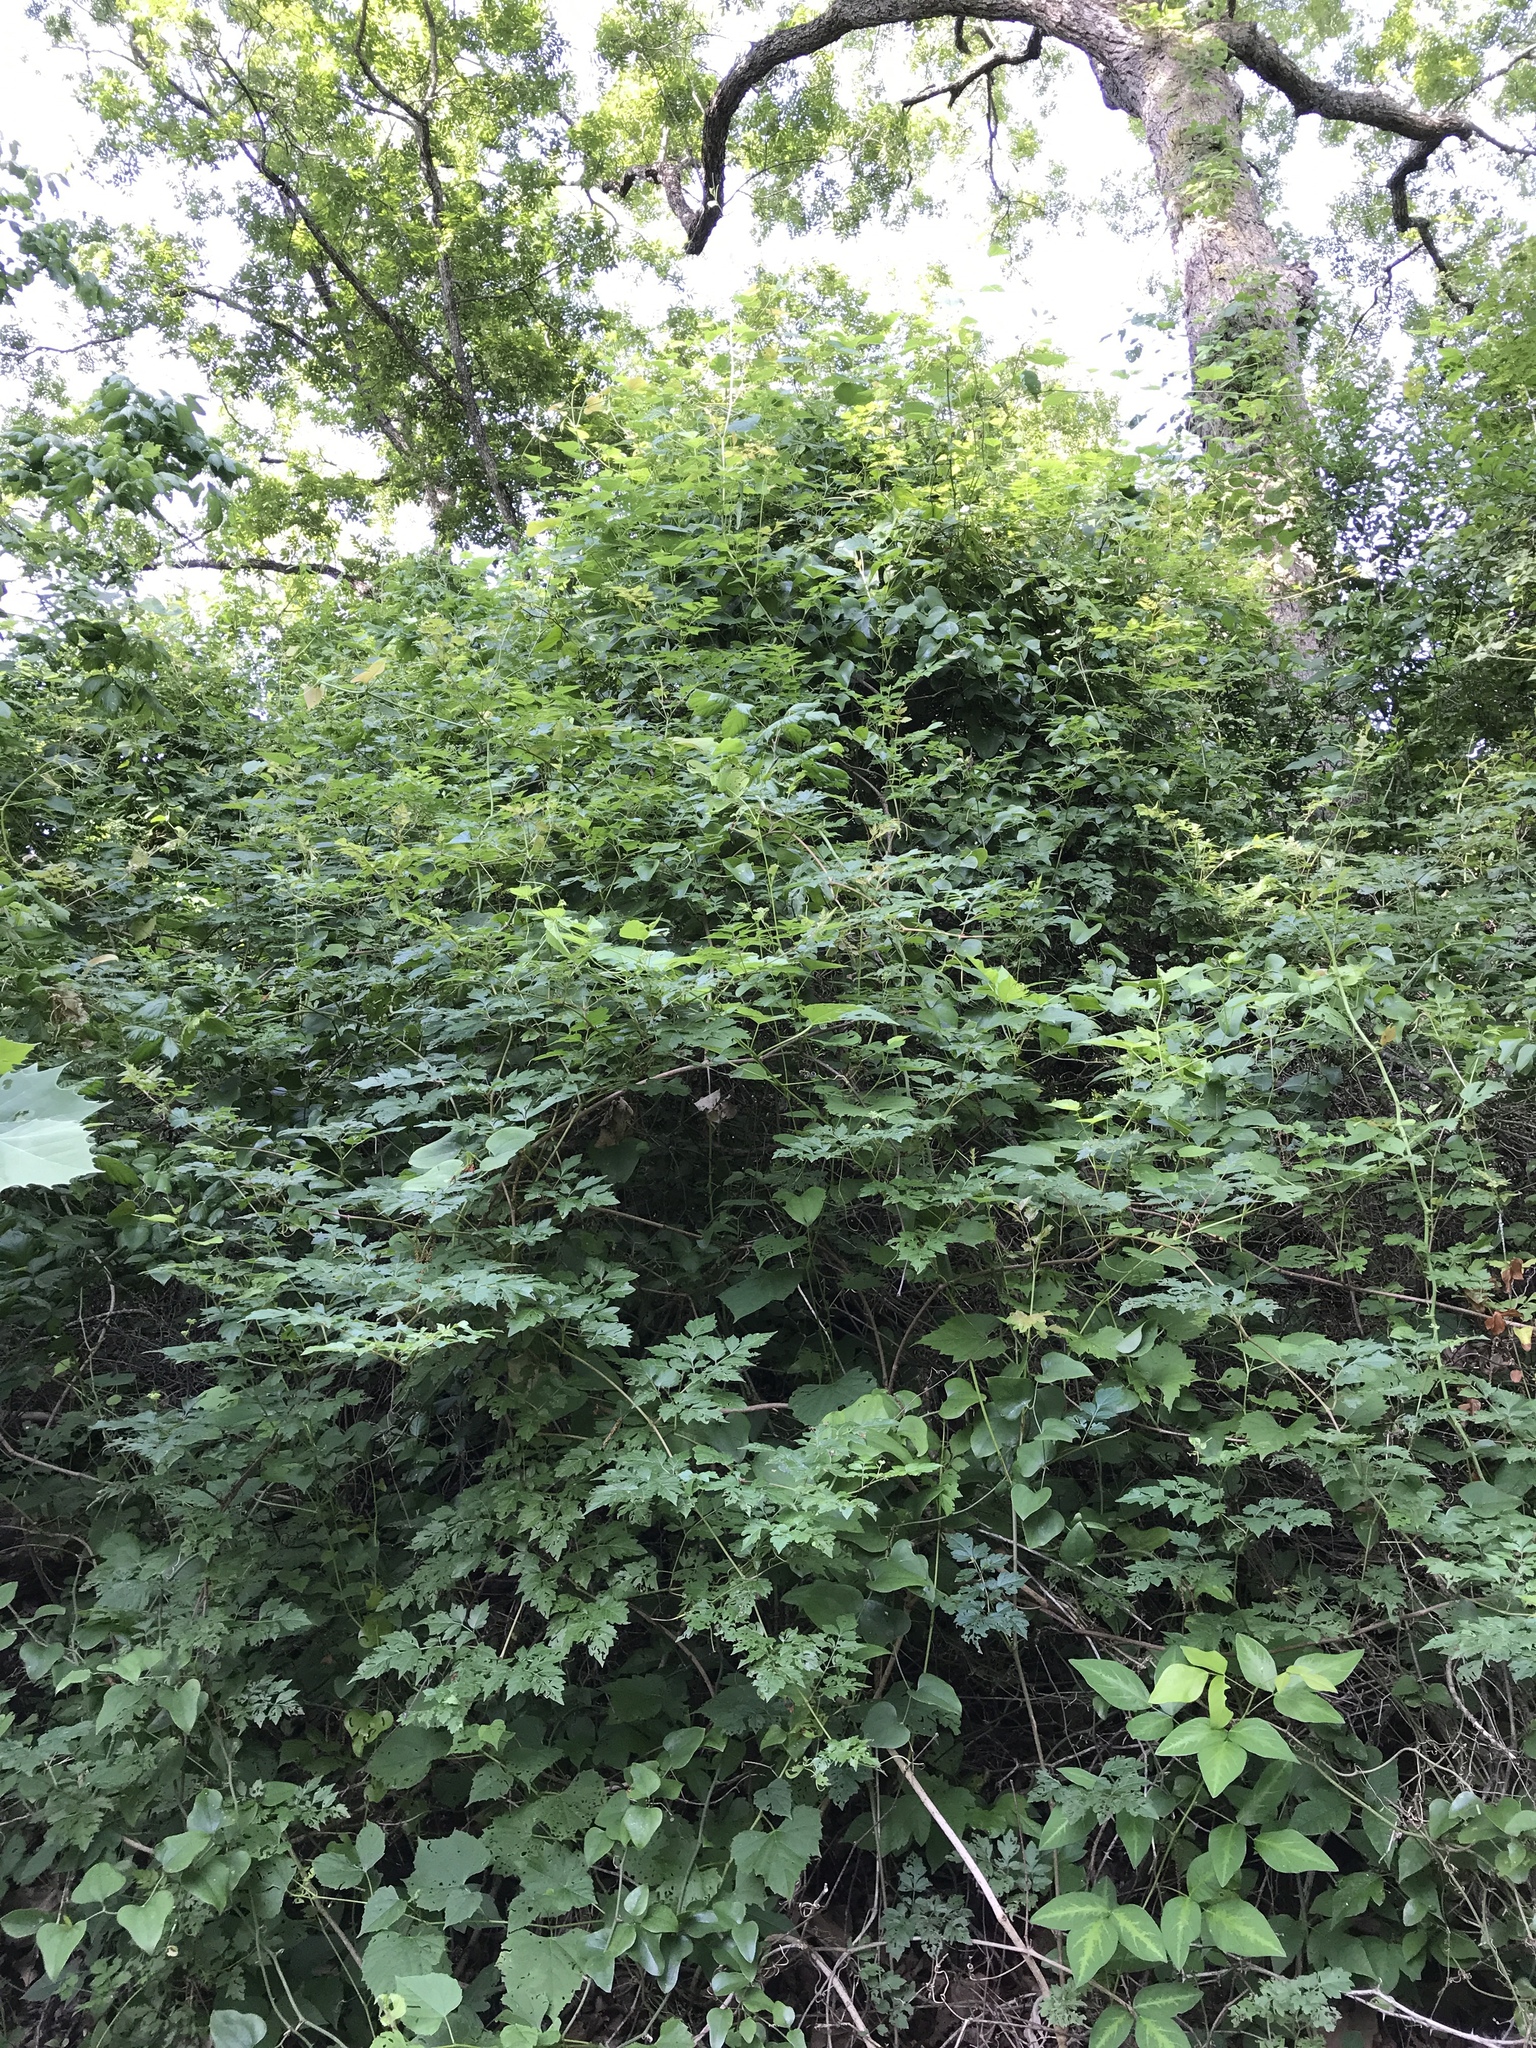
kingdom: Plantae
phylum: Tracheophyta
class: Magnoliopsida
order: Vitales
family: Vitaceae
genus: Nekemias
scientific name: Nekemias arborea
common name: Peppervine
